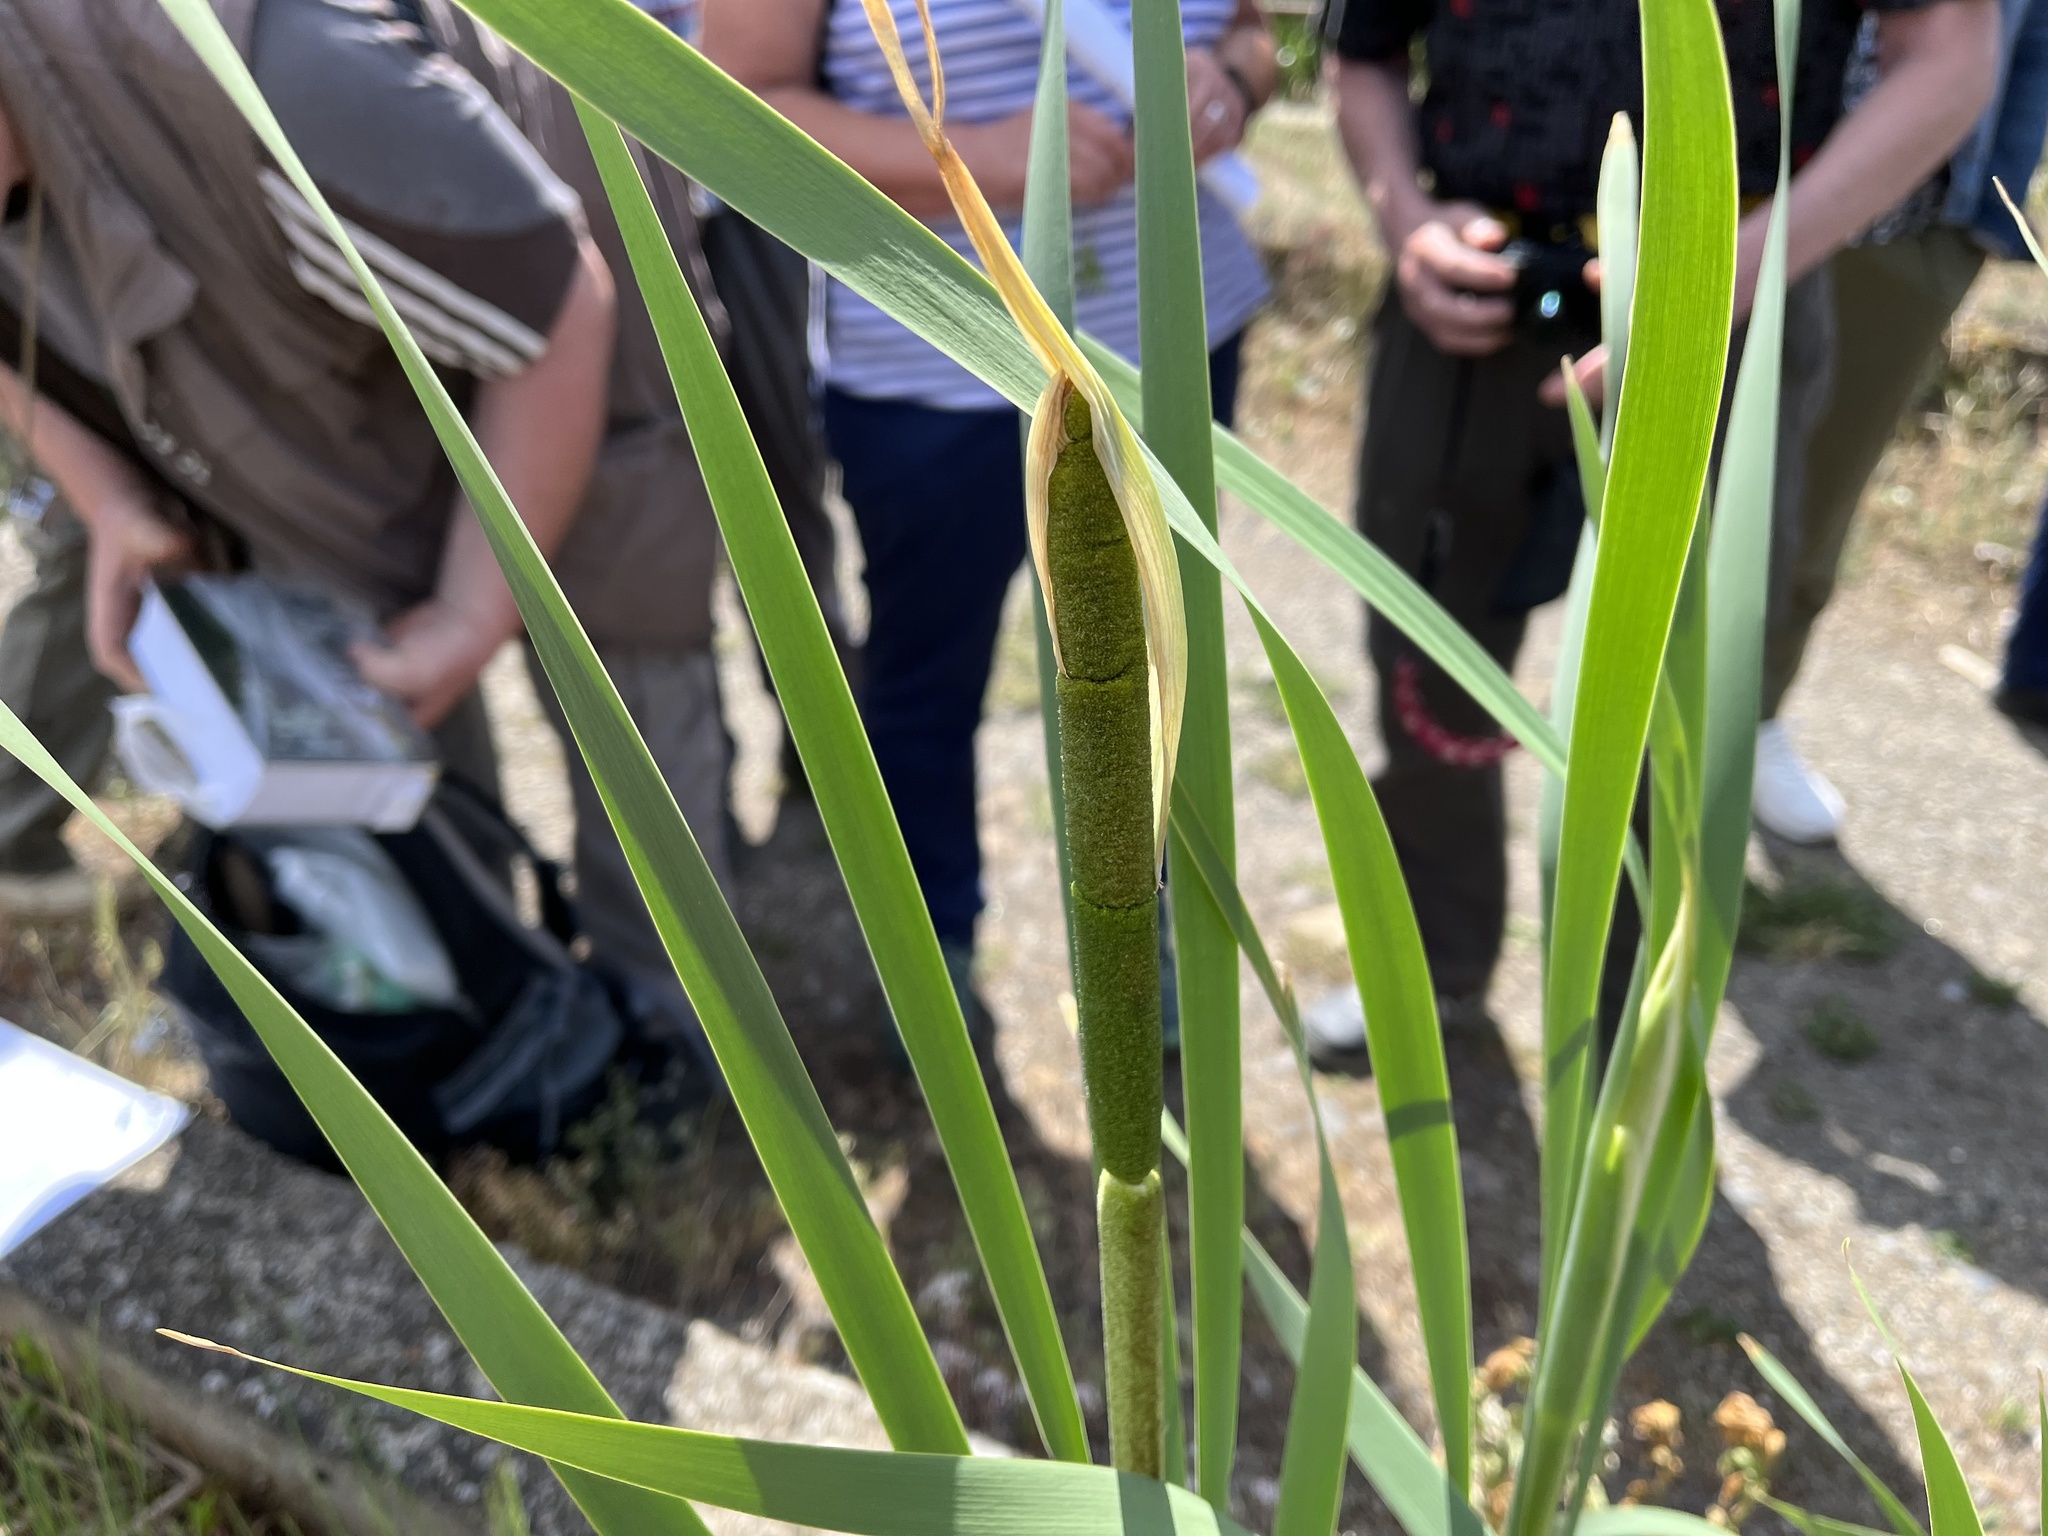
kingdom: Plantae
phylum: Tracheophyta
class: Liliopsida
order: Poales
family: Typhaceae
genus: Typha
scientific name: Typha latifolia
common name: Broadleaf cattail
